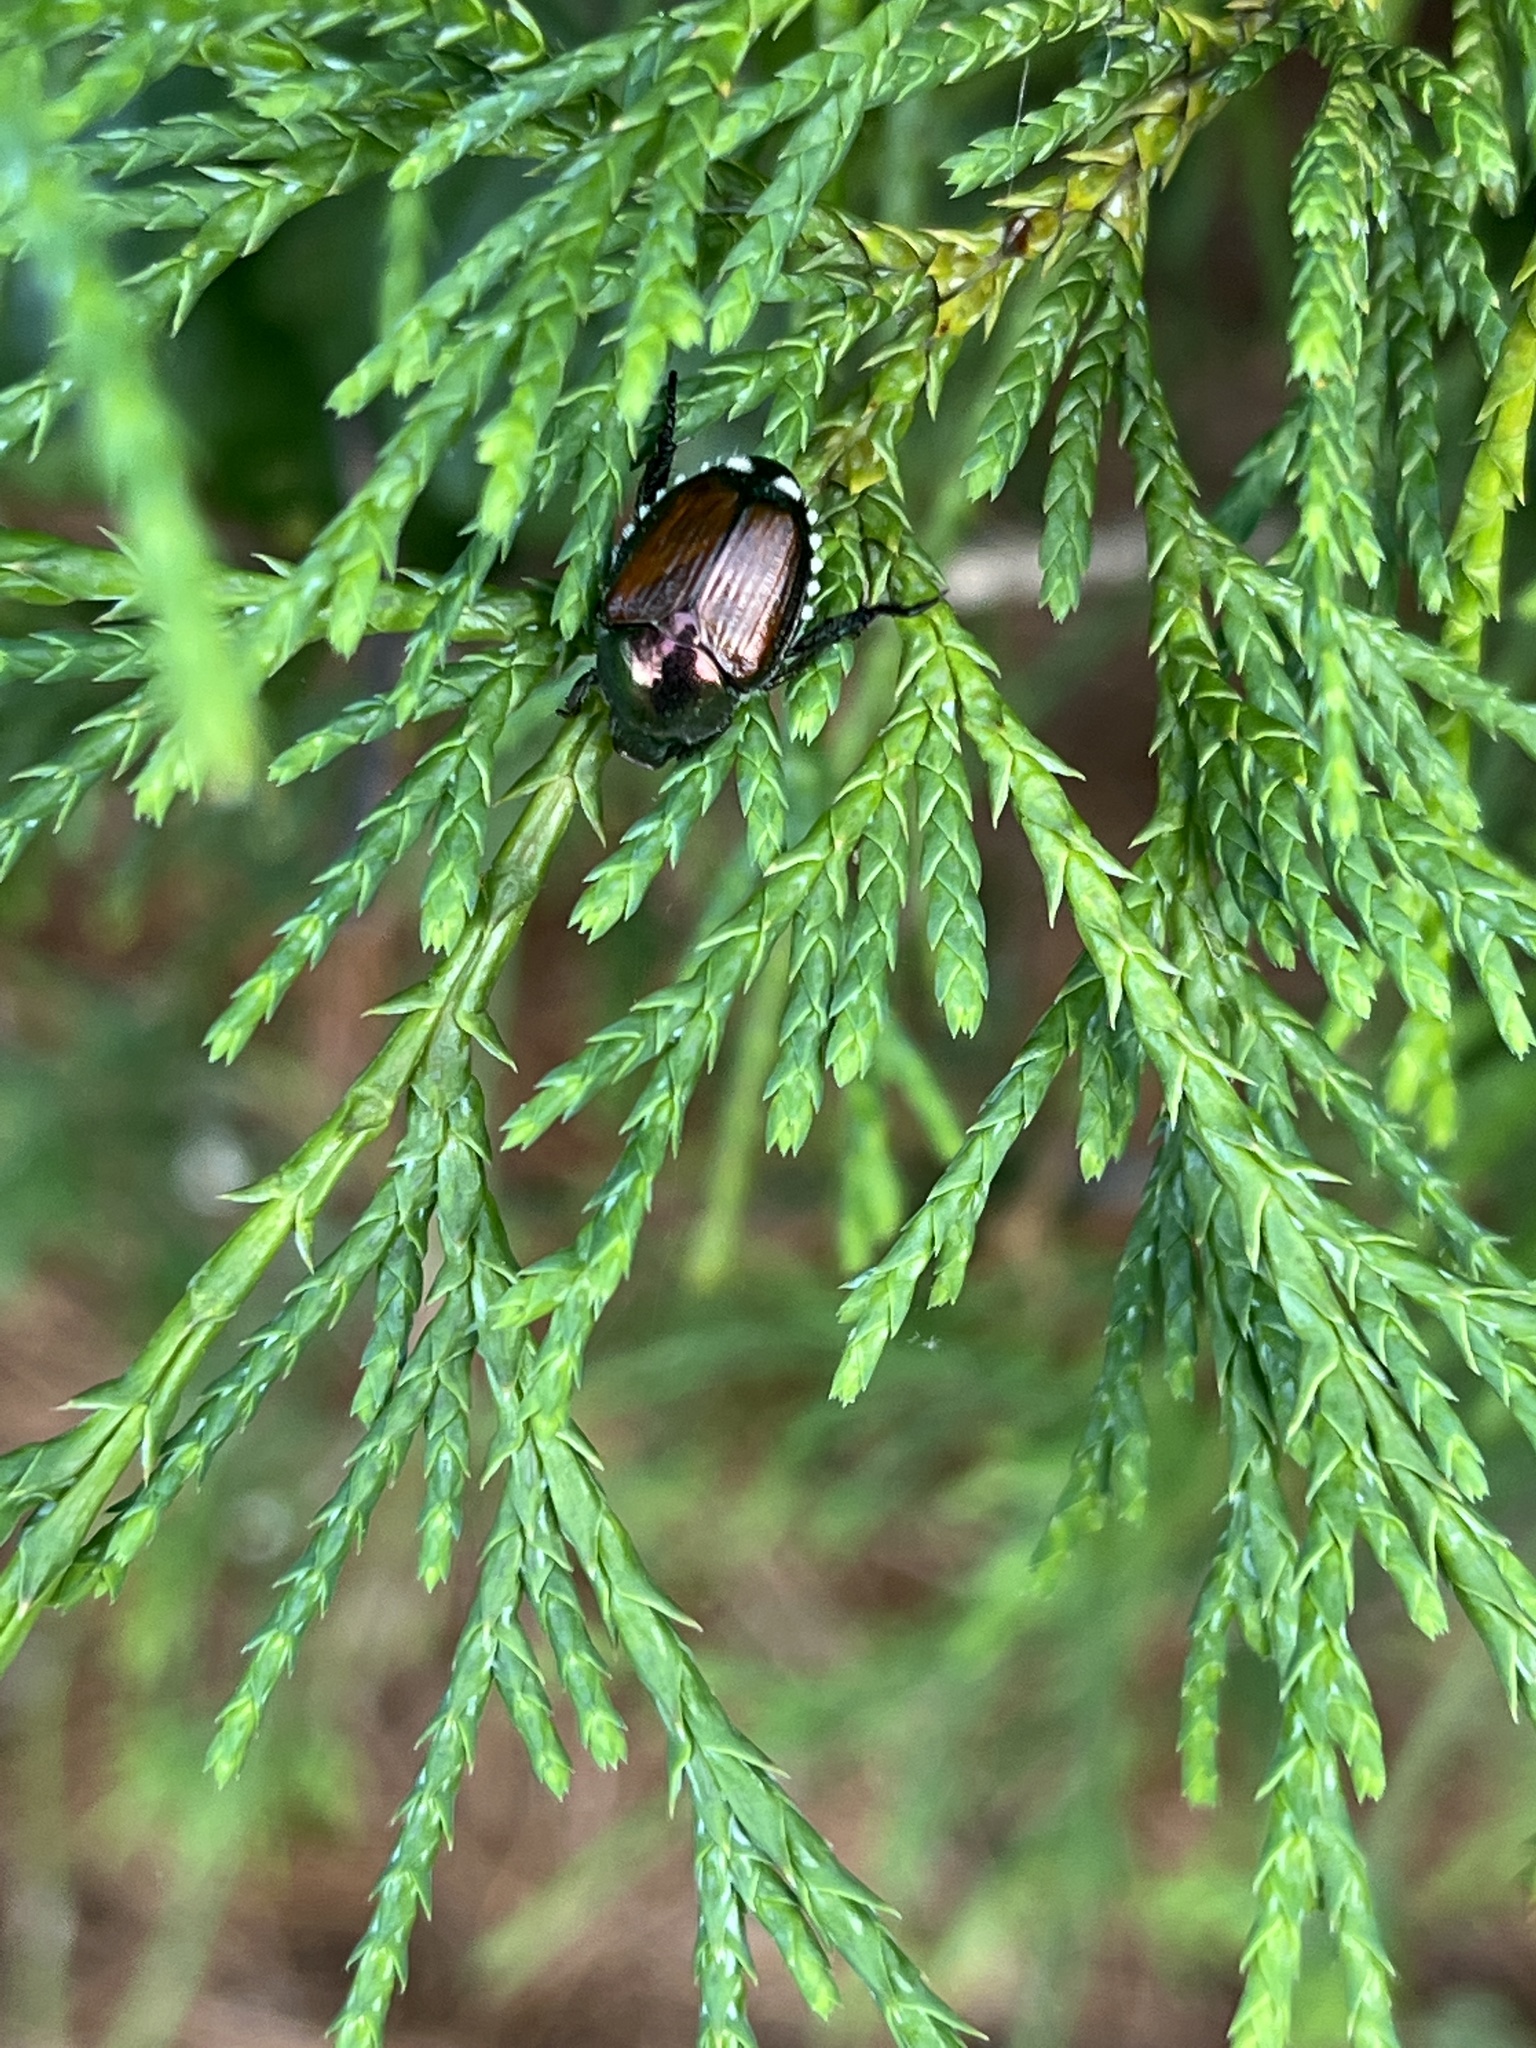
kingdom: Animalia
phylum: Arthropoda
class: Insecta
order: Coleoptera
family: Scarabaeidae
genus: Popillia
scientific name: Popillia japonica
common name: Japanese beetle
